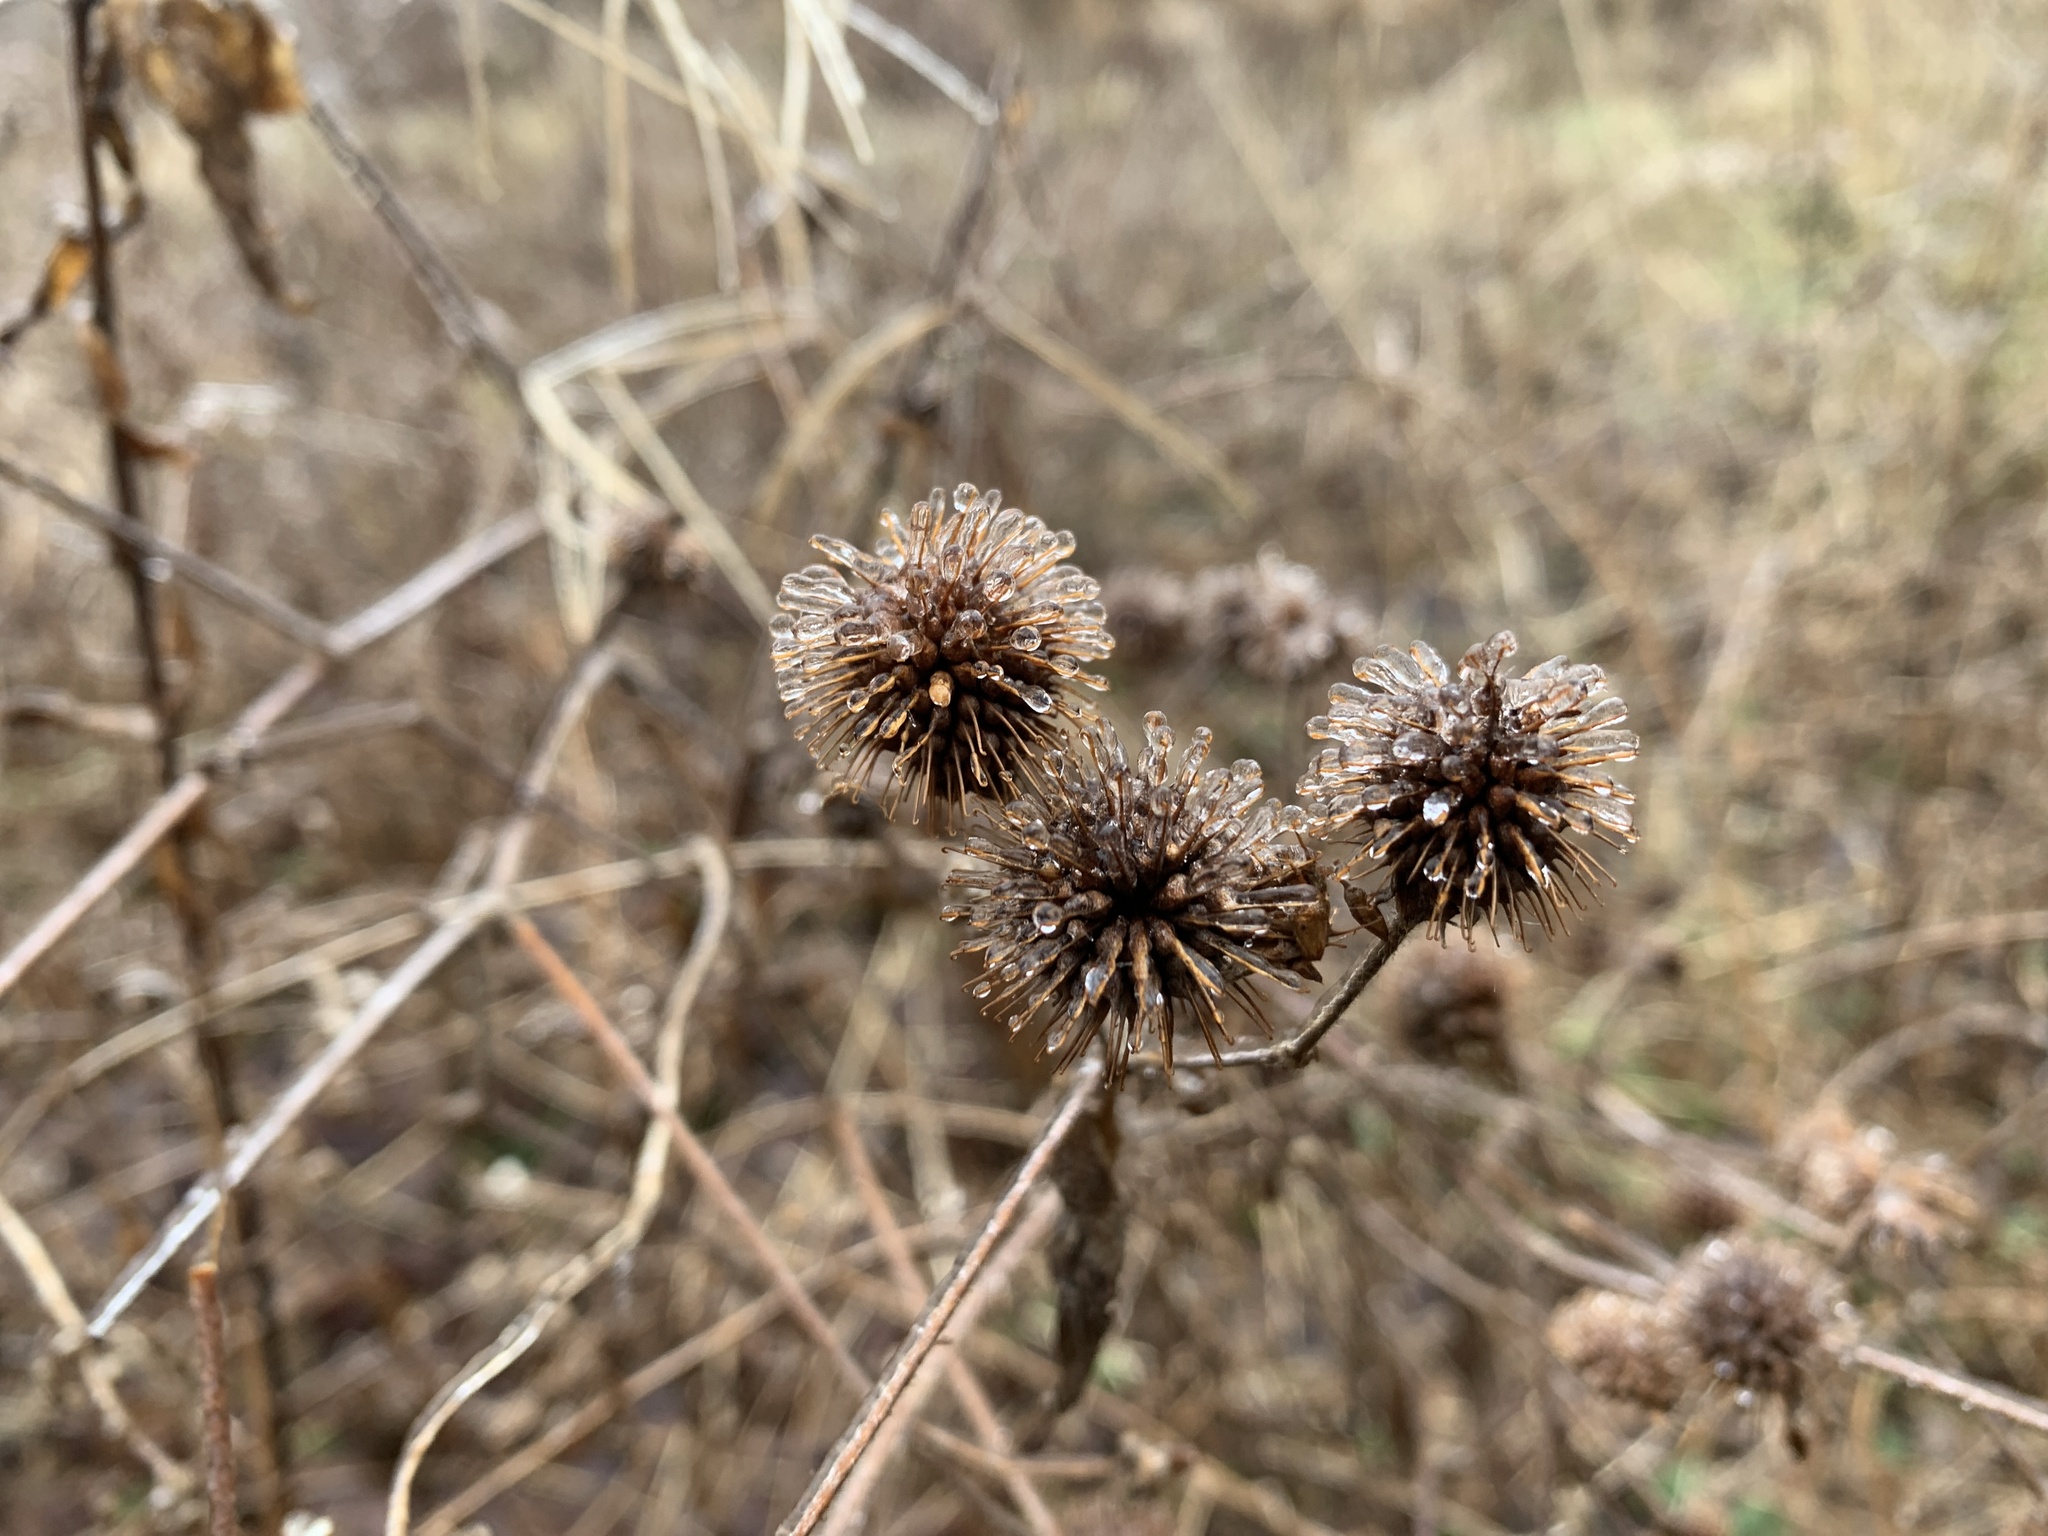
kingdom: Plantae
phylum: Tracheophyta
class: Magnoliopsida
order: Rosales
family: Rosaceae
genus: Geum
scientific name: Geum aleppicum
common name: Yellow avens
